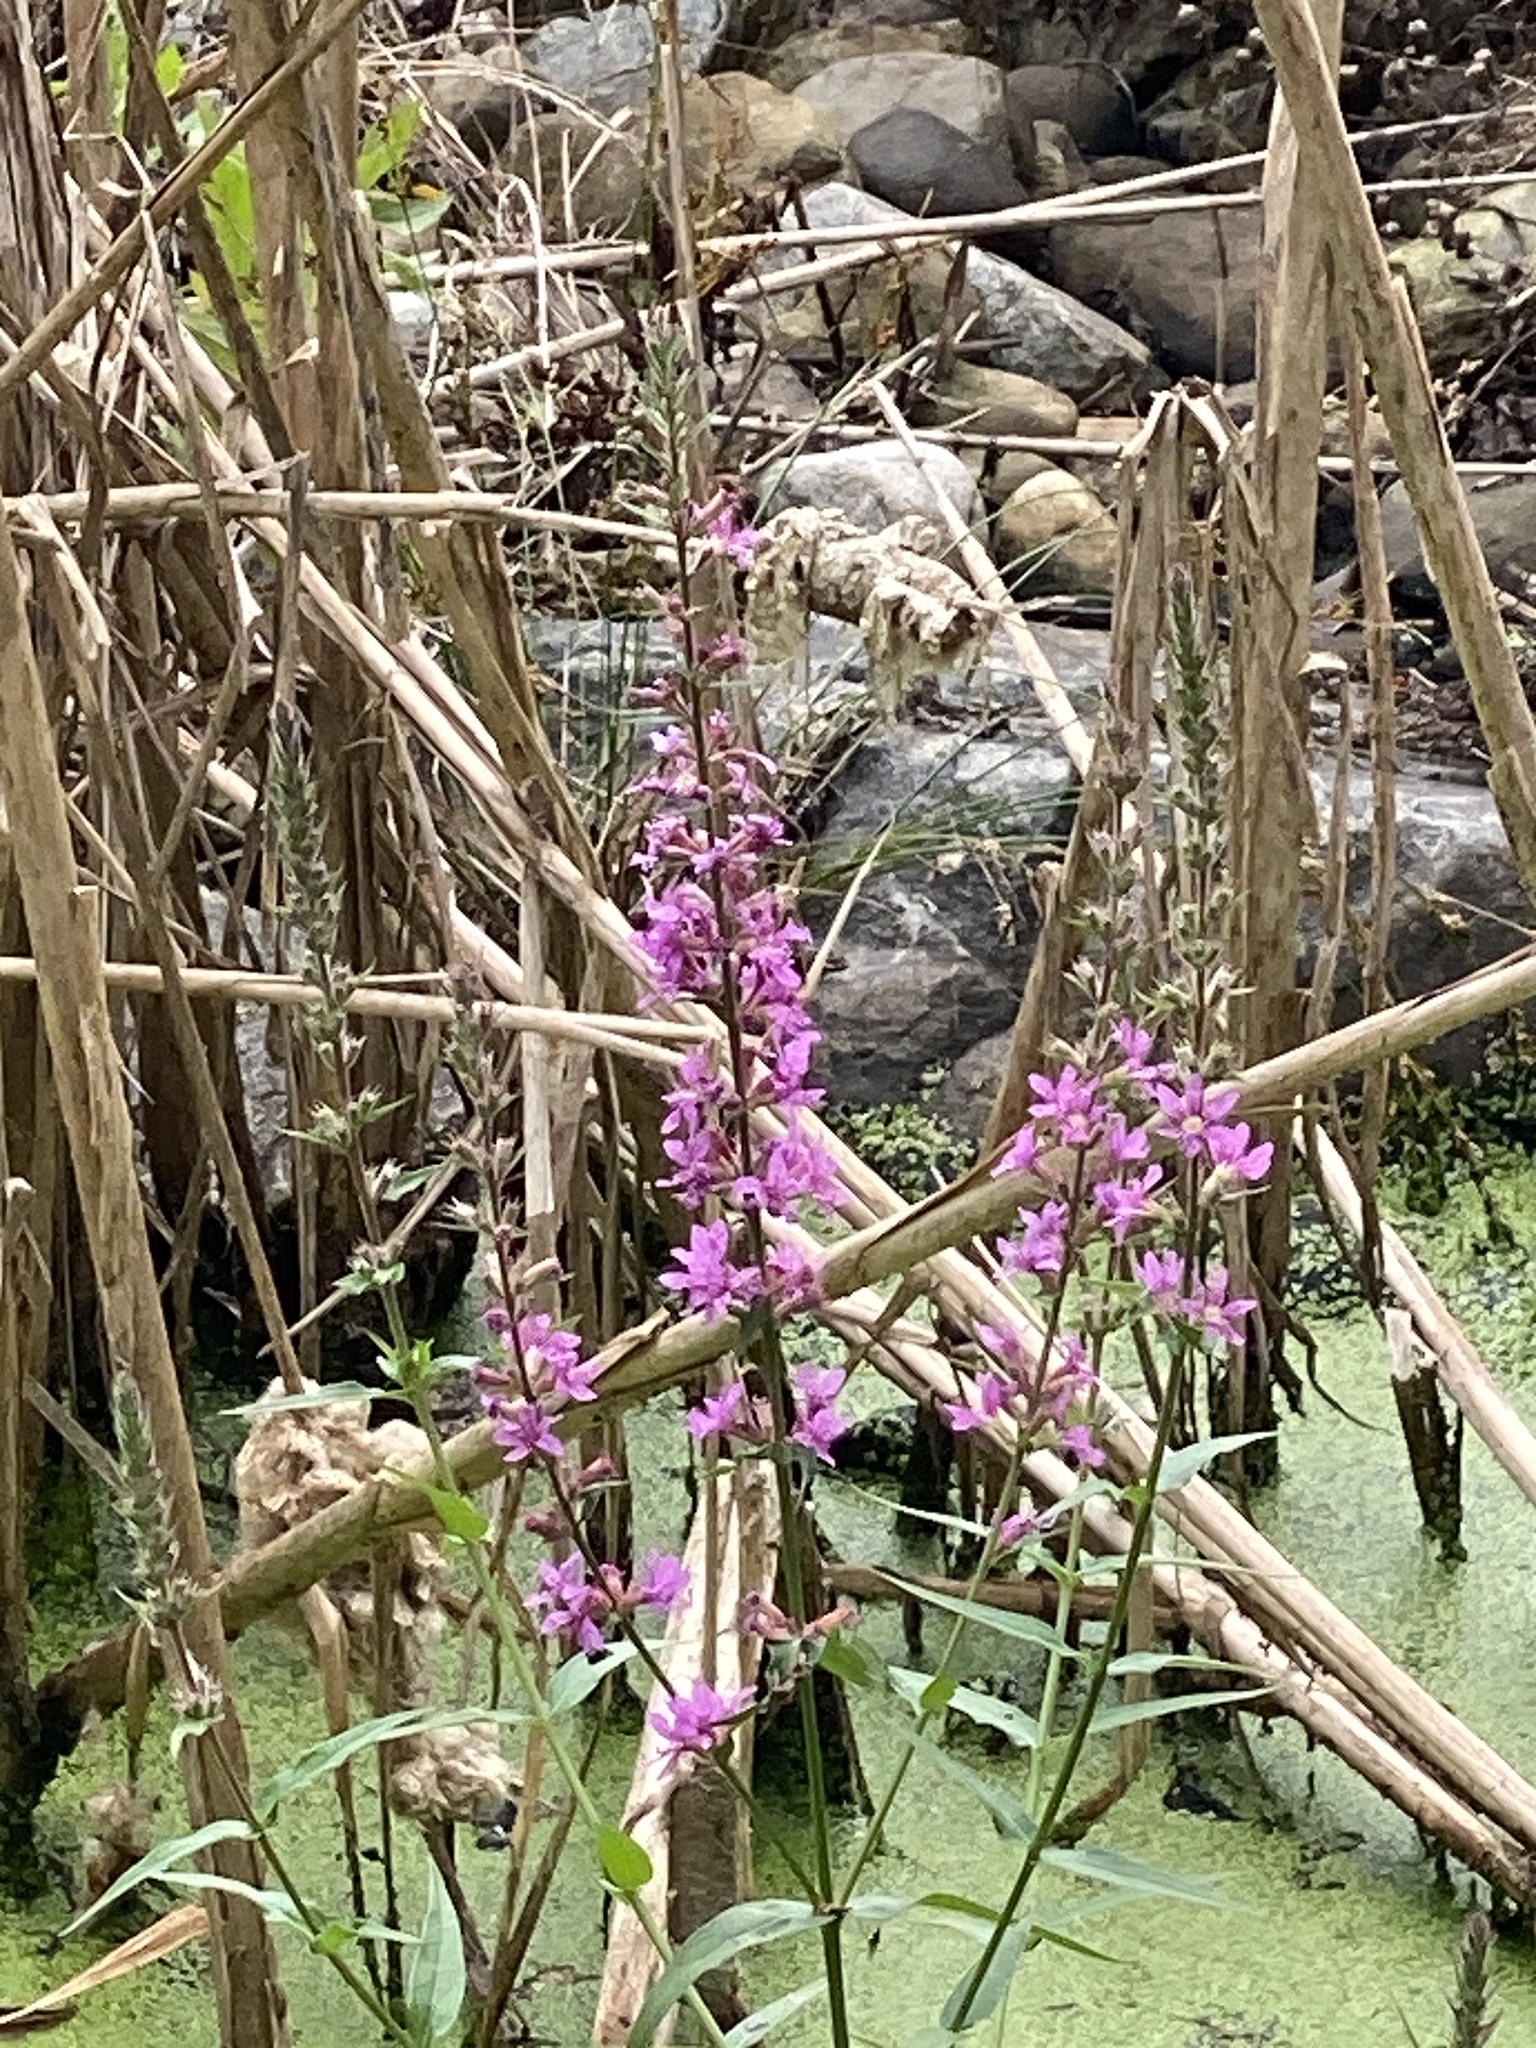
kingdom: Plantae
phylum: Tracheophyta
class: Magnoliopsida
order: Myrtales
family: Lythraceae
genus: Lythrum
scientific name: Lythrum salicaria
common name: Purple loosestrife
